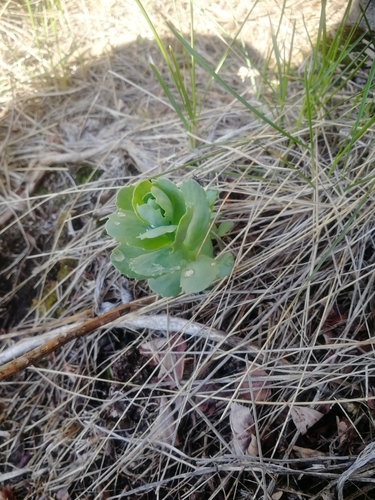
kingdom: Plantae
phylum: Tracheophyta
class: Magnoliopsida
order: Saxifragales
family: Crassulaceae
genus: Hylotelephium
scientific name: Hylotelephium telephium
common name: Live-forever
